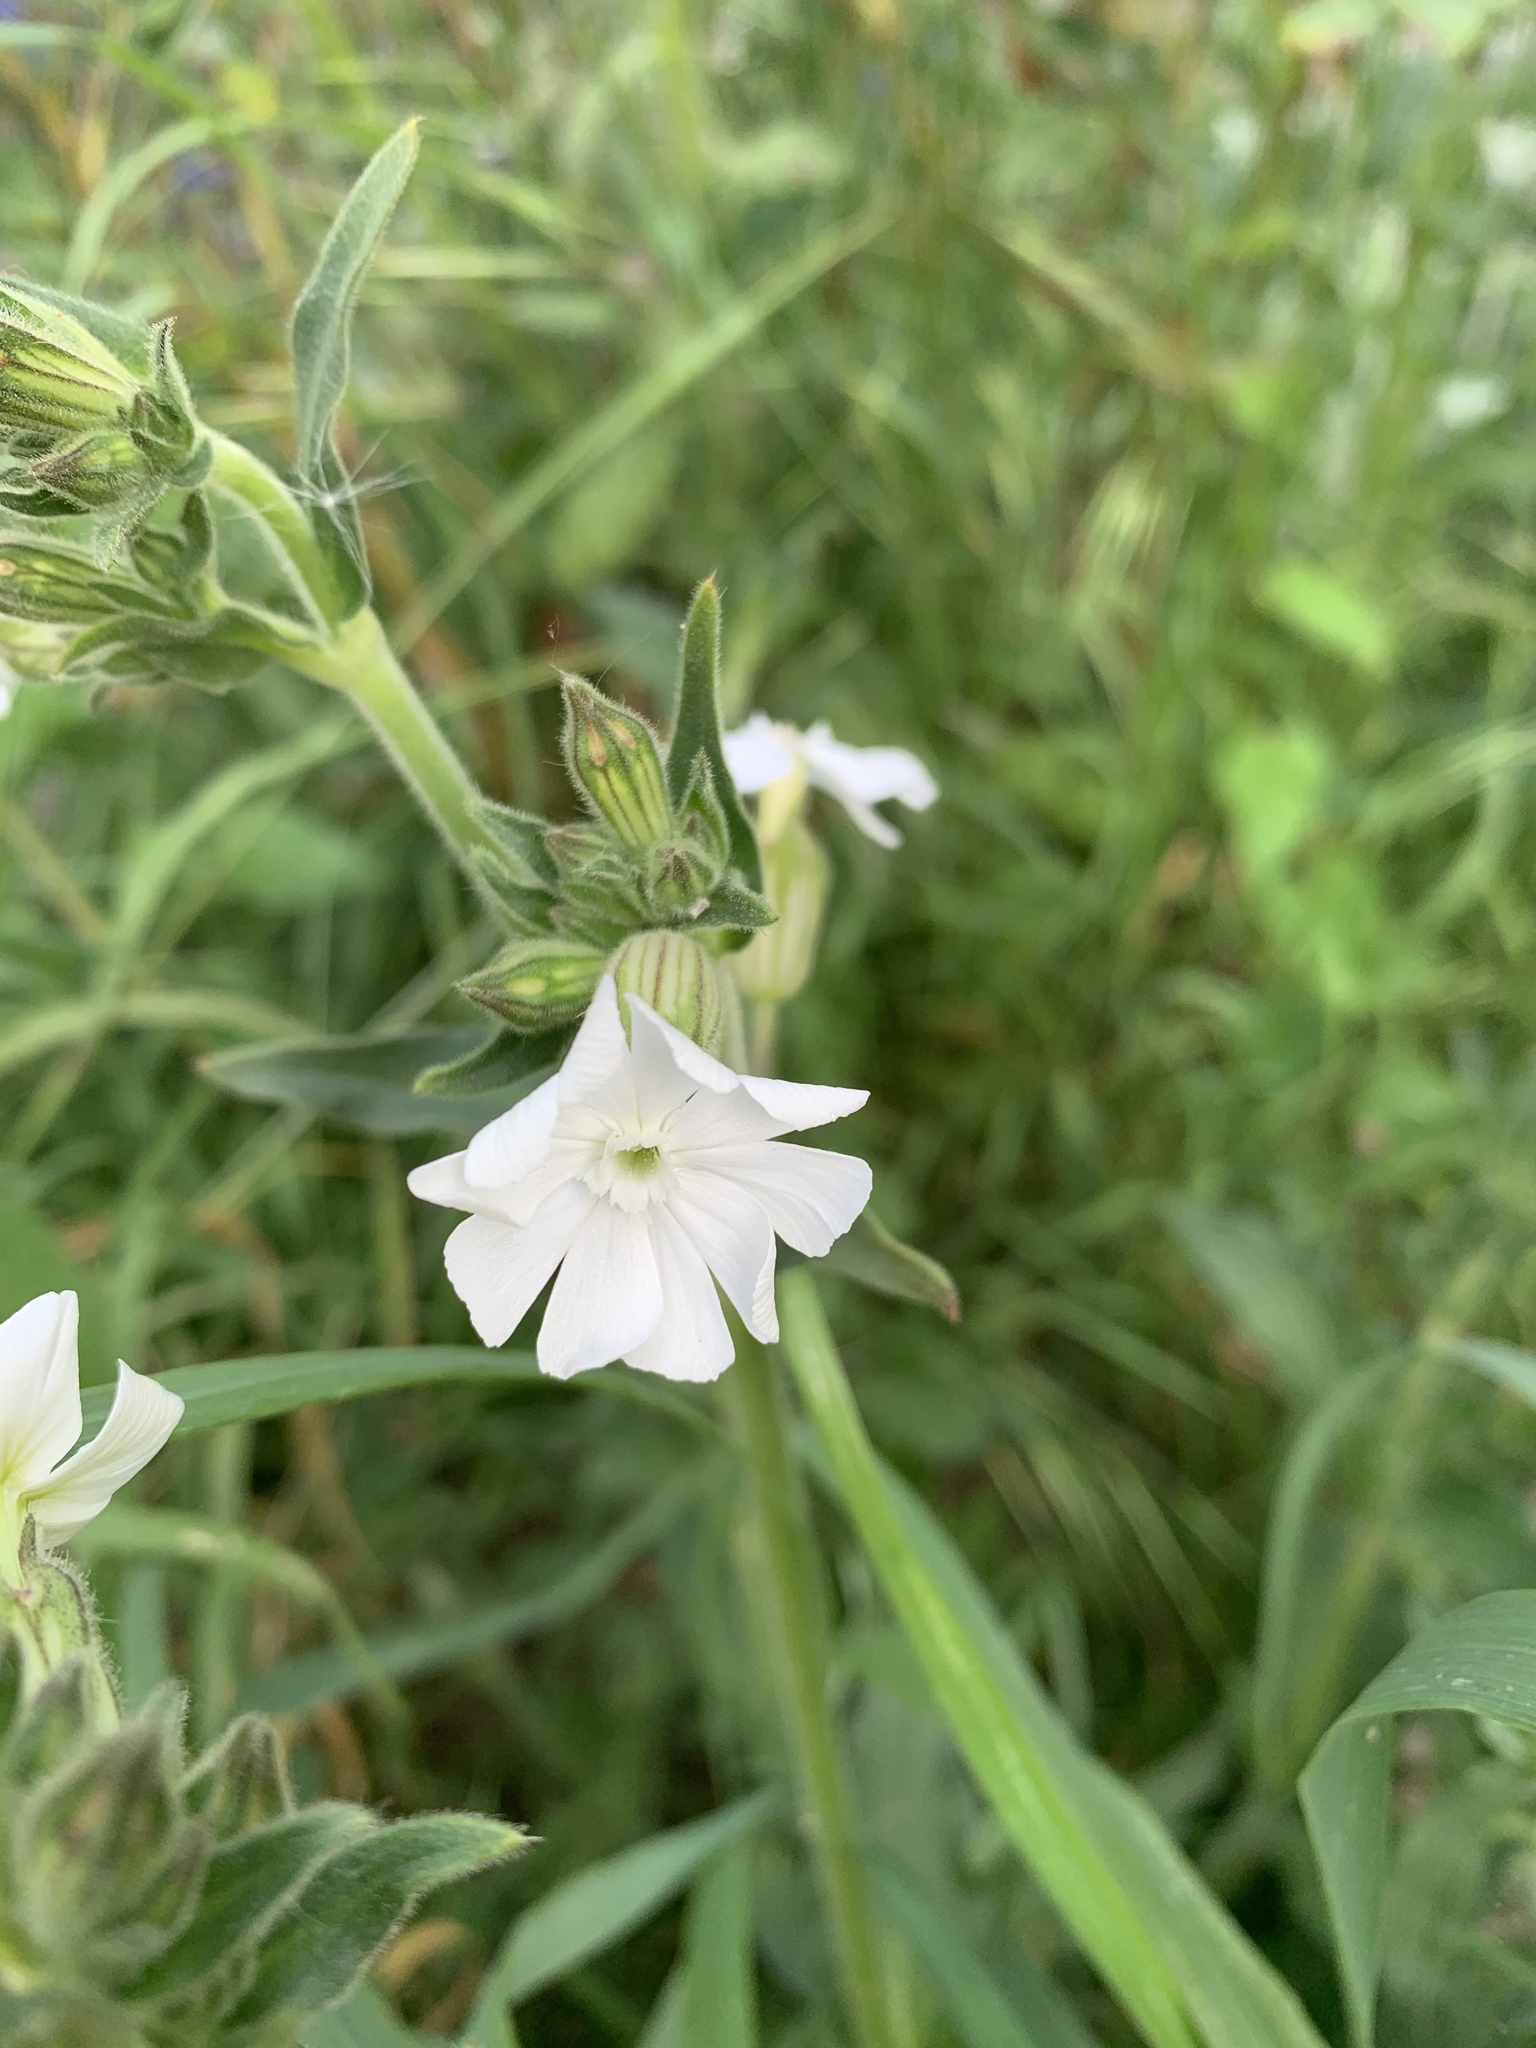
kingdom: Plantae
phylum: Tracheophyta
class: Magnoliopsida
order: Caryophyllales
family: Caryophyllaceae
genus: Silene
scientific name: Silene latifolia
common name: White campion
